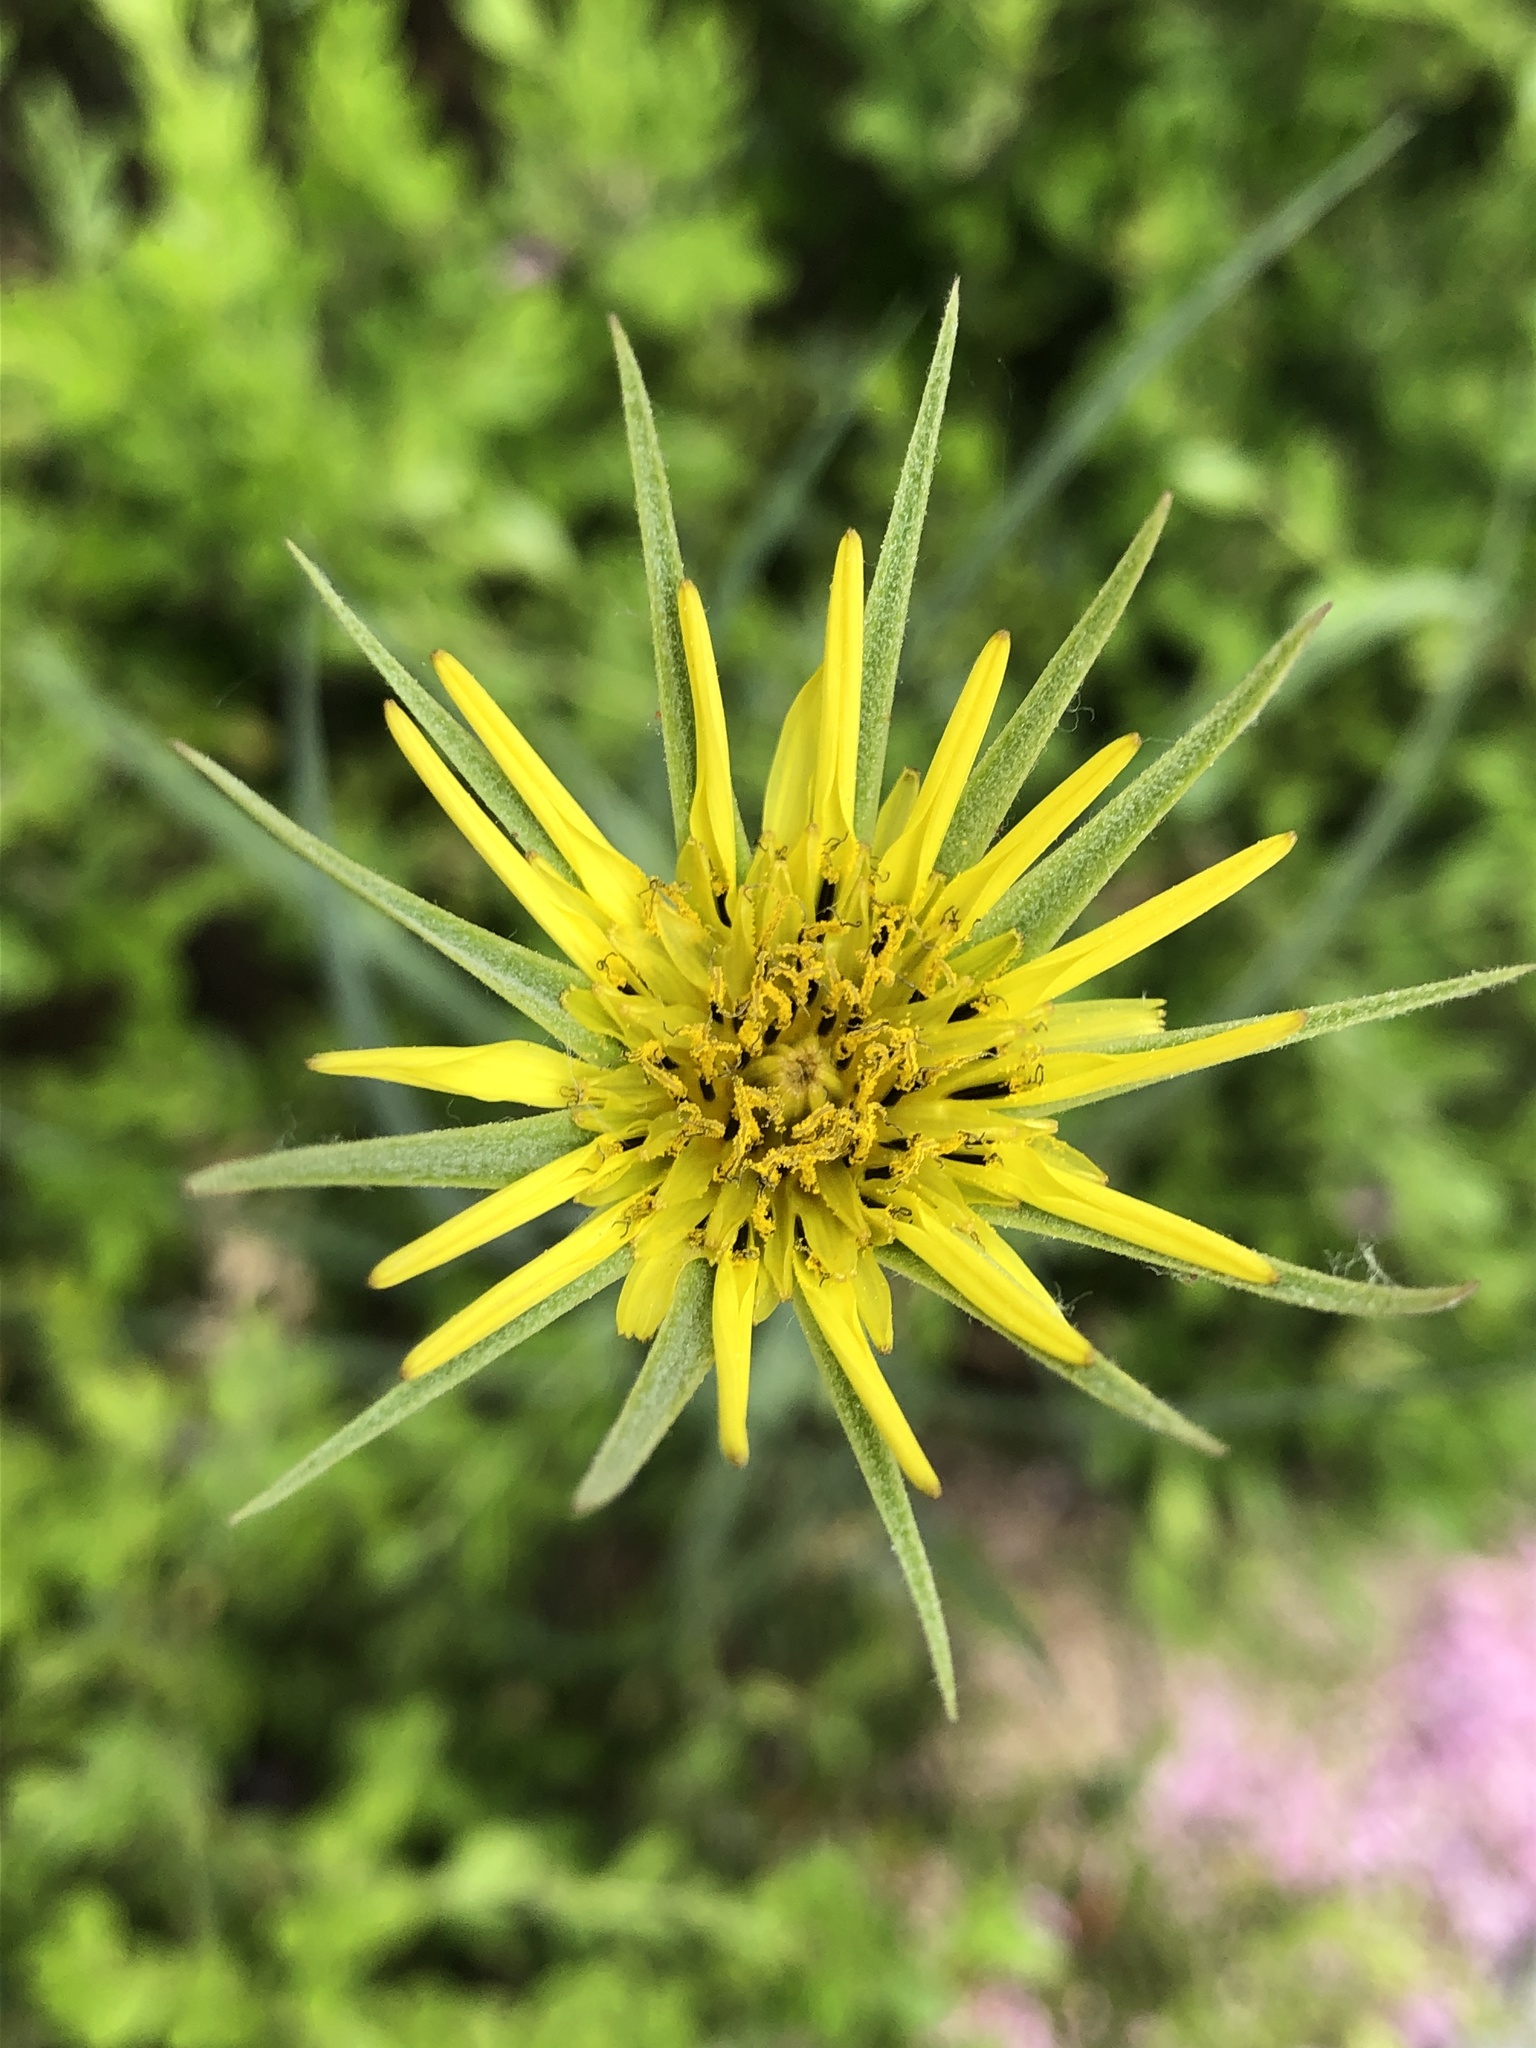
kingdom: Plantae
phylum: Tracheophyta
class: Magnoliopsida
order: Asterales
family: Asteraceae
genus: Tragopogon
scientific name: Tragopogon dubius
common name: Yellow salsify
